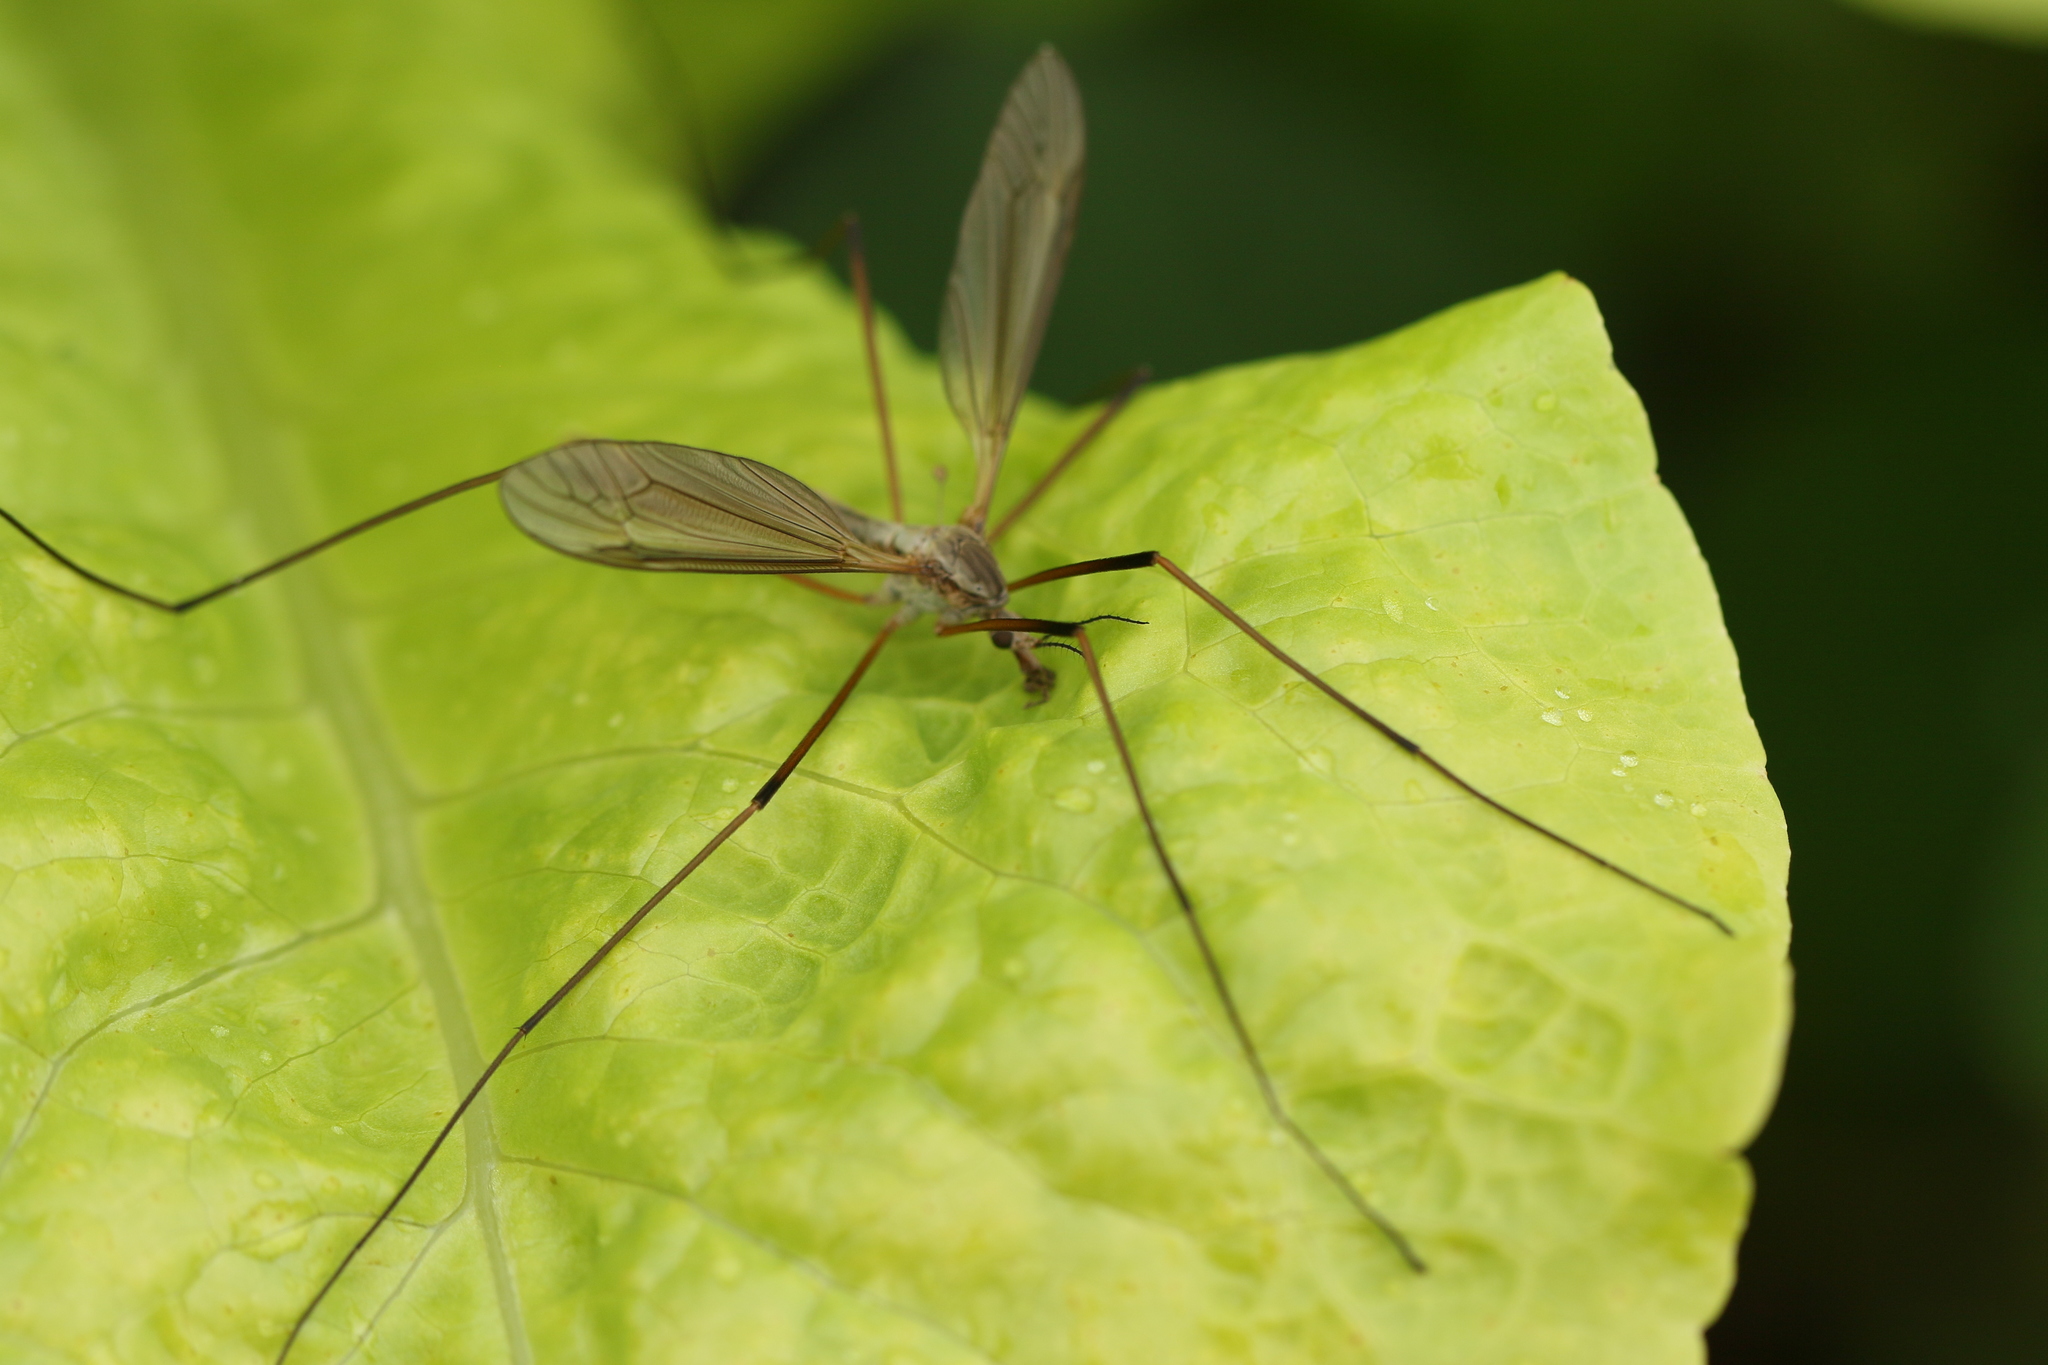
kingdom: Animalia
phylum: Arthropoda
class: Insecta
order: Diptera
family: Tipulidae
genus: Tipula
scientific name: Tipula paludosa
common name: European cranefly
